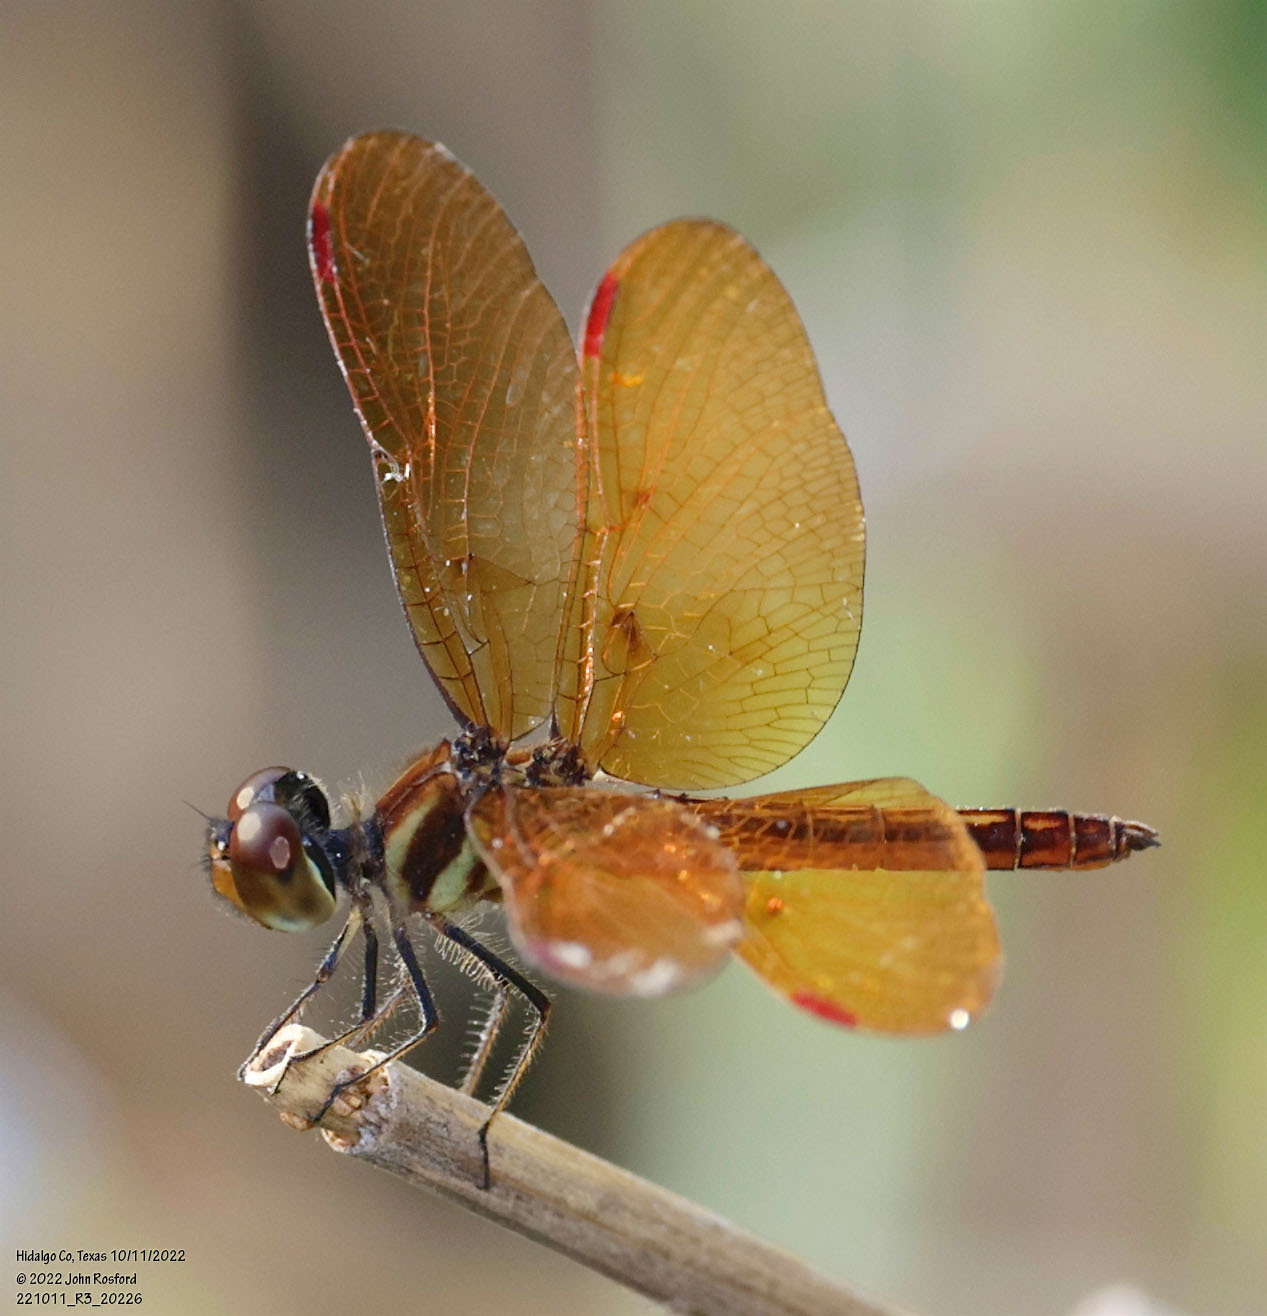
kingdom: Animalia
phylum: Arthropoda
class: Insecta
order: Odonata
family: Libellulidae
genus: Perithemis
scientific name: Perithemis domitia
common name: Slough amberwing
